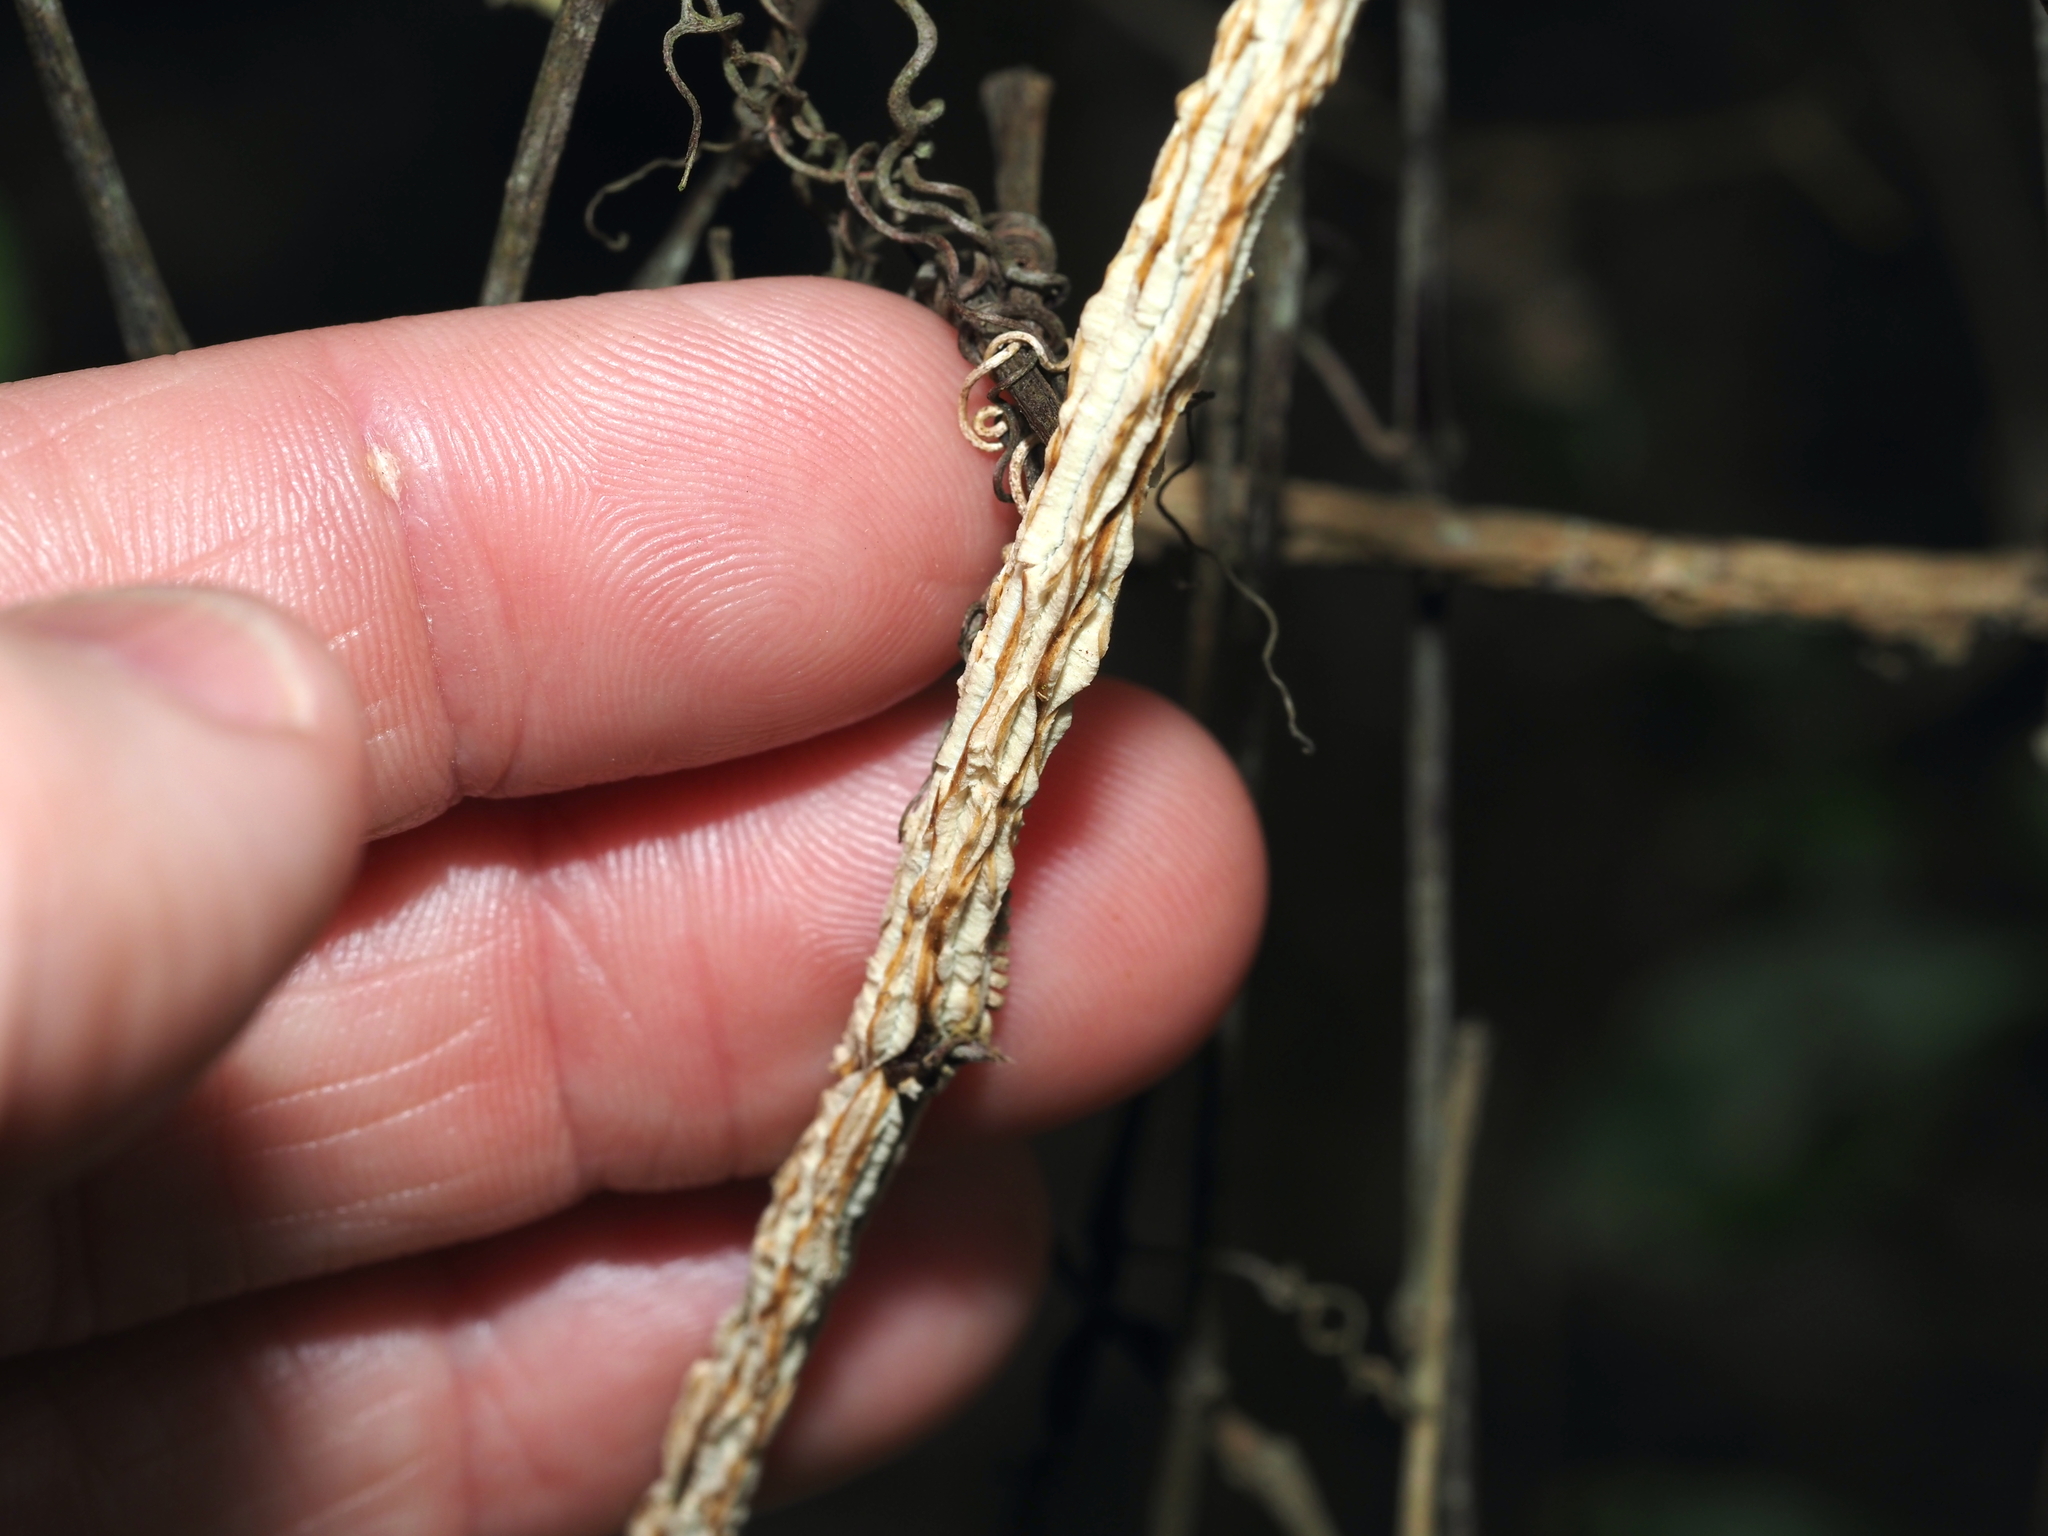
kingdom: Plantae
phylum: Tracheophyta
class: Magnoliopsida
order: Malpighiales
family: Passifloraceae
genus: Passiflora
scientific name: Passiflora pallida
